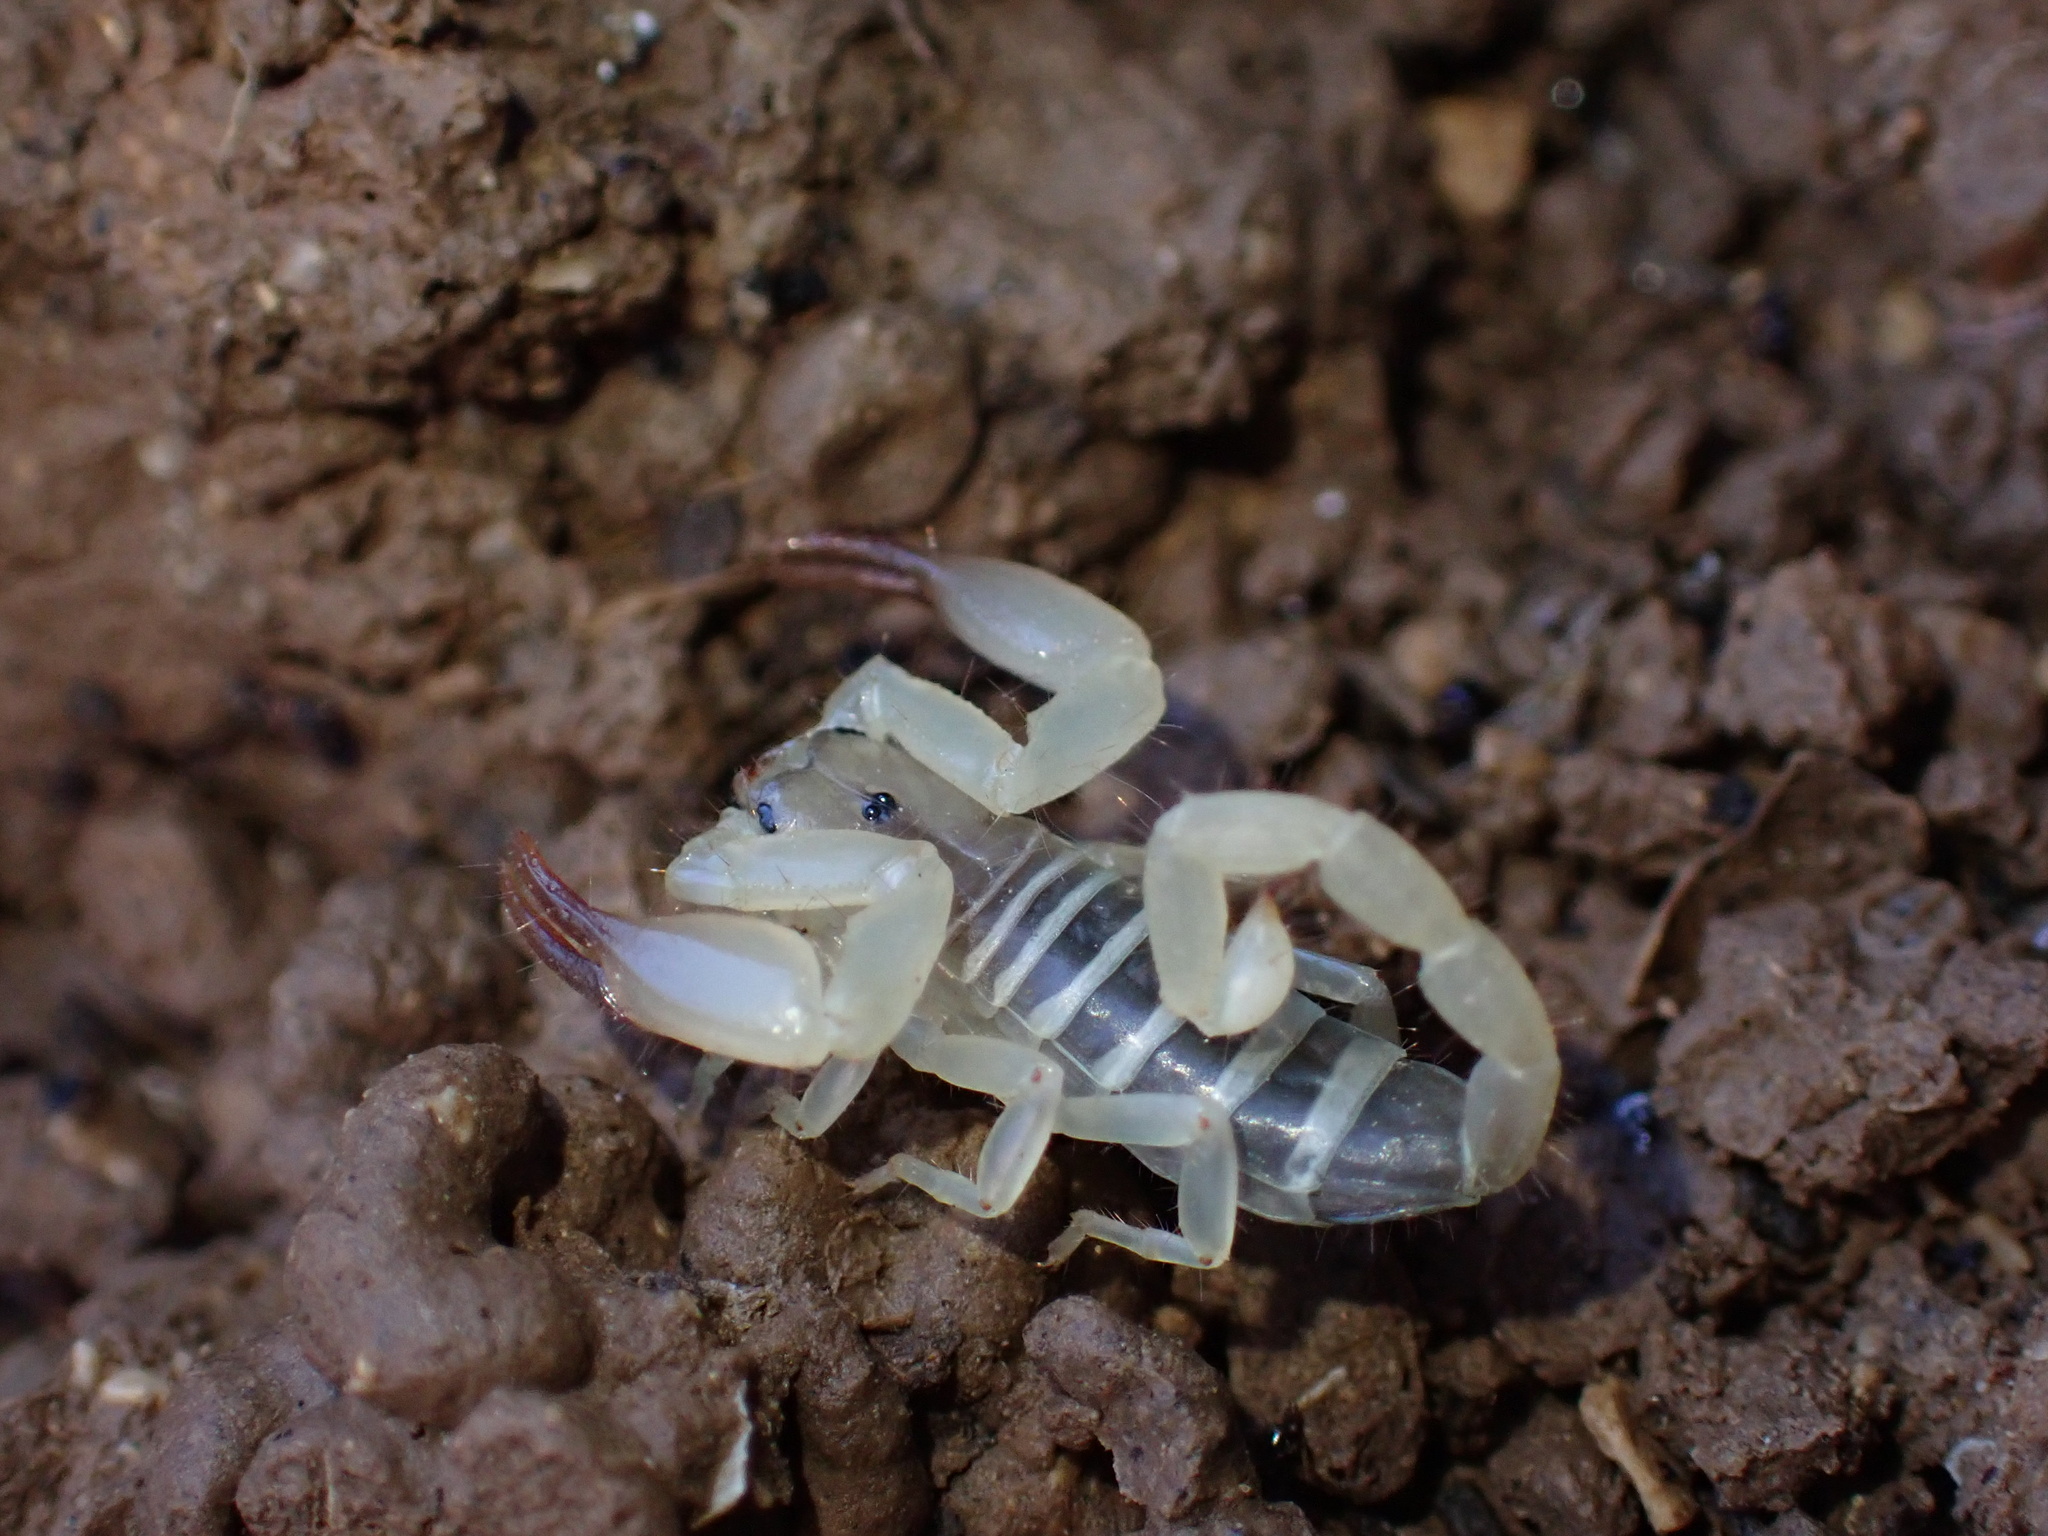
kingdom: Animalia
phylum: Arthropoda
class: Arachnida
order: Scorpiones
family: Hemiscorpiidae
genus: Hemiscorpius
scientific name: Hemiscorpius lepturus
